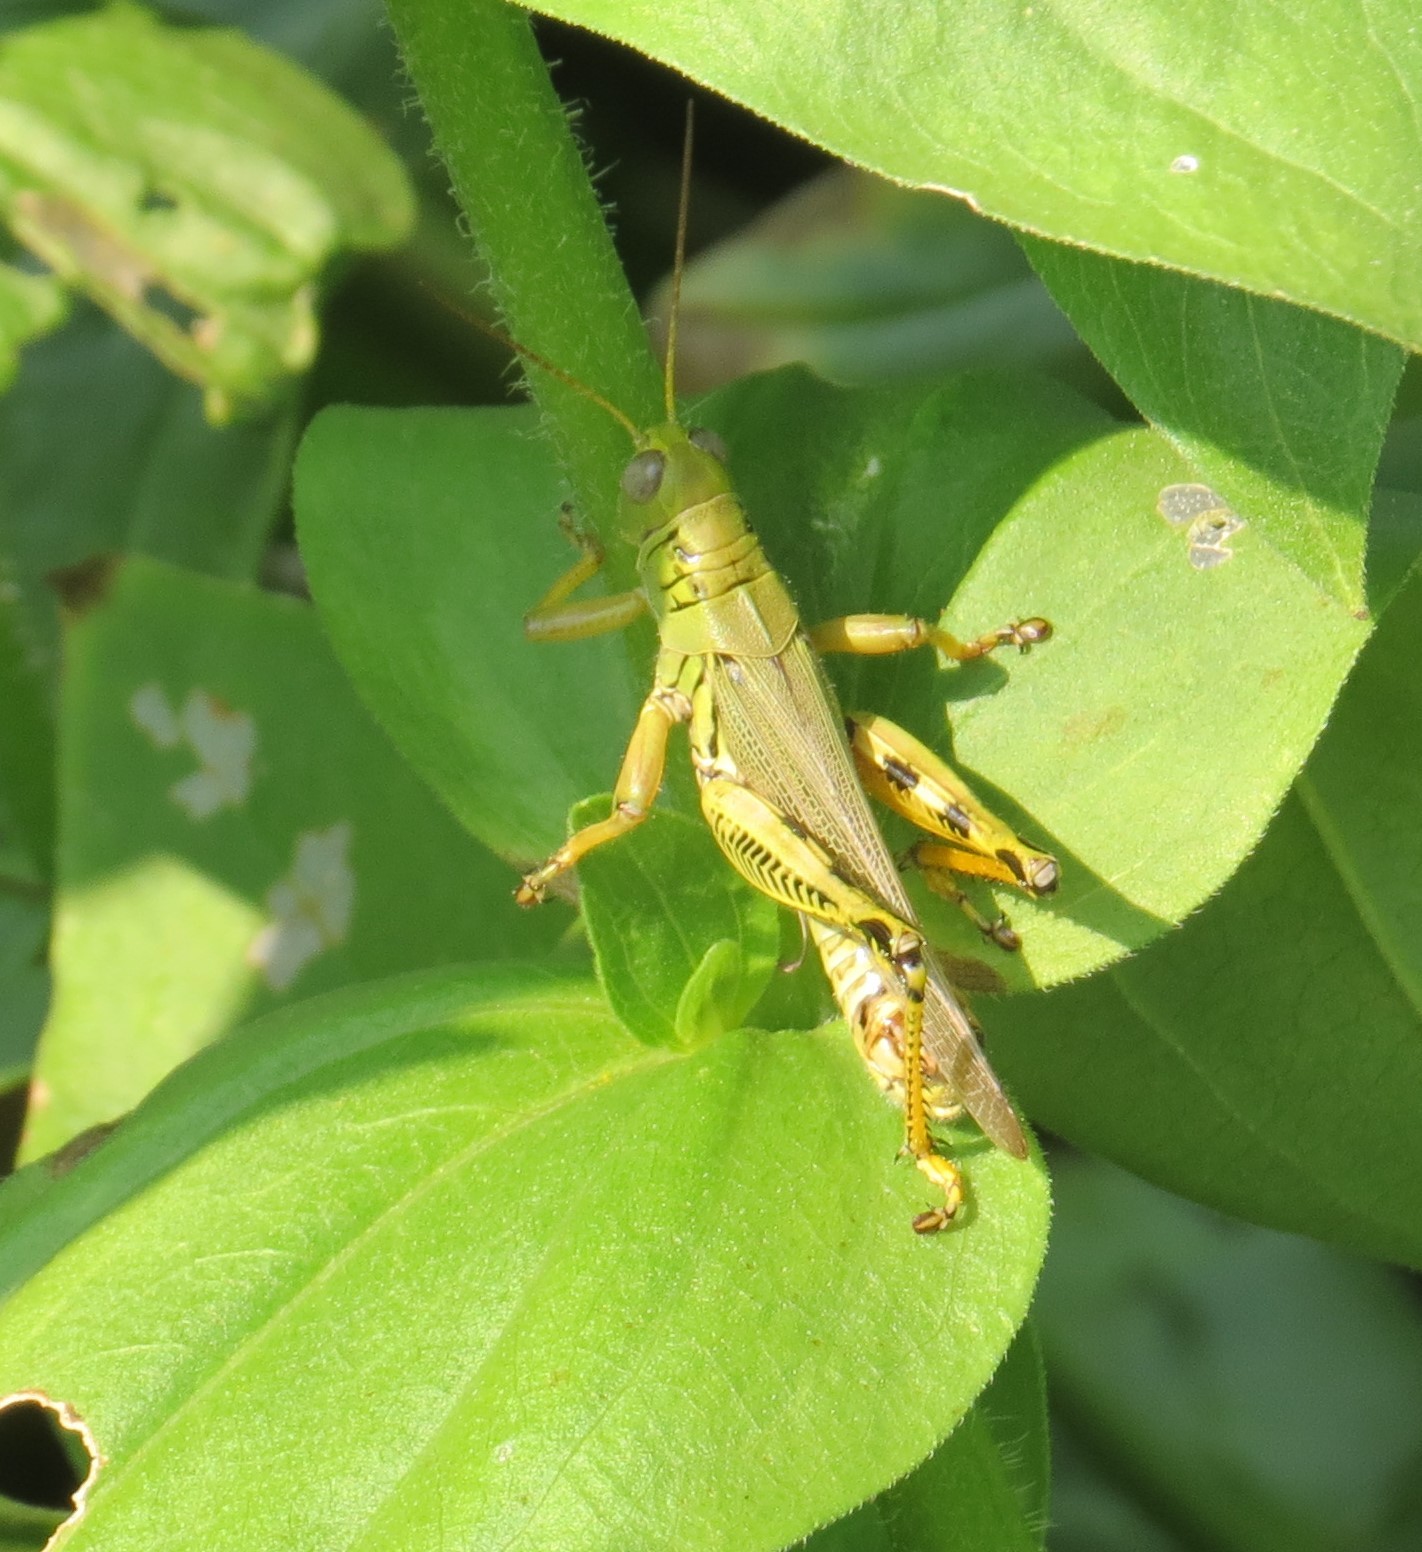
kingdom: Animalia
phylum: Arthropoda
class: Insecta
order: Orthoptera
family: Acrididae
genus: Melanoplus
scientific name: Melanoplus differentialis
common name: Differential grasshopper
